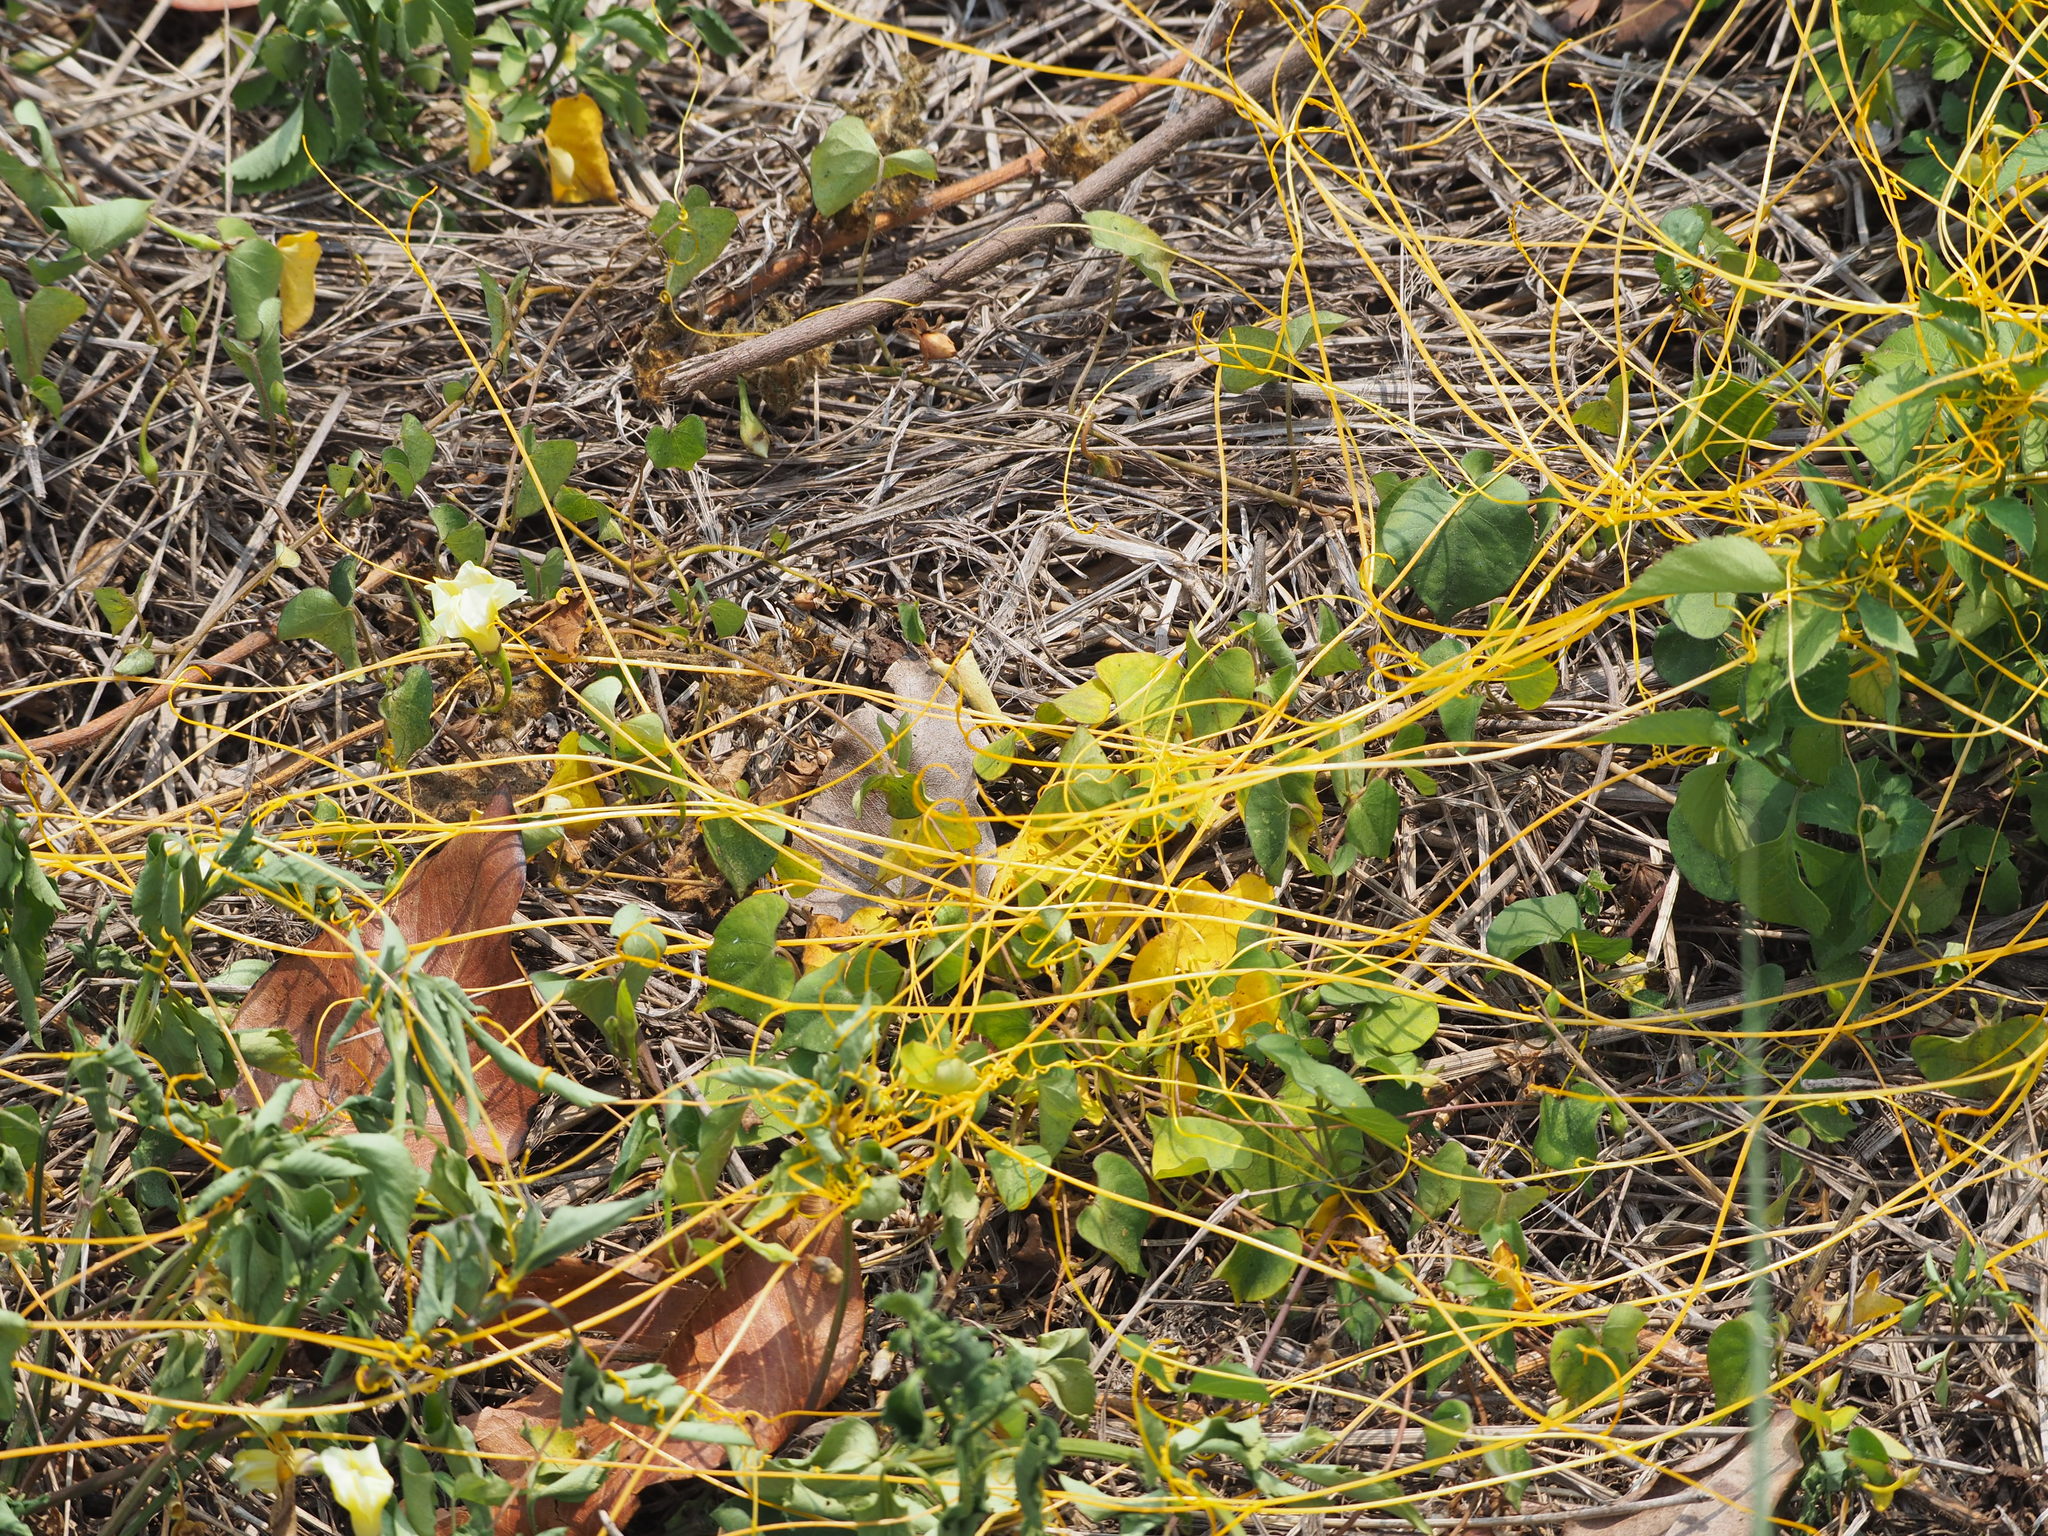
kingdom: Plantae
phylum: Tracheophyta
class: Magnoliopsida
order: Solanales
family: Convolvulaceae
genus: Cuscuta
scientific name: Cuscuta campestris
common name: Yellow dodder
